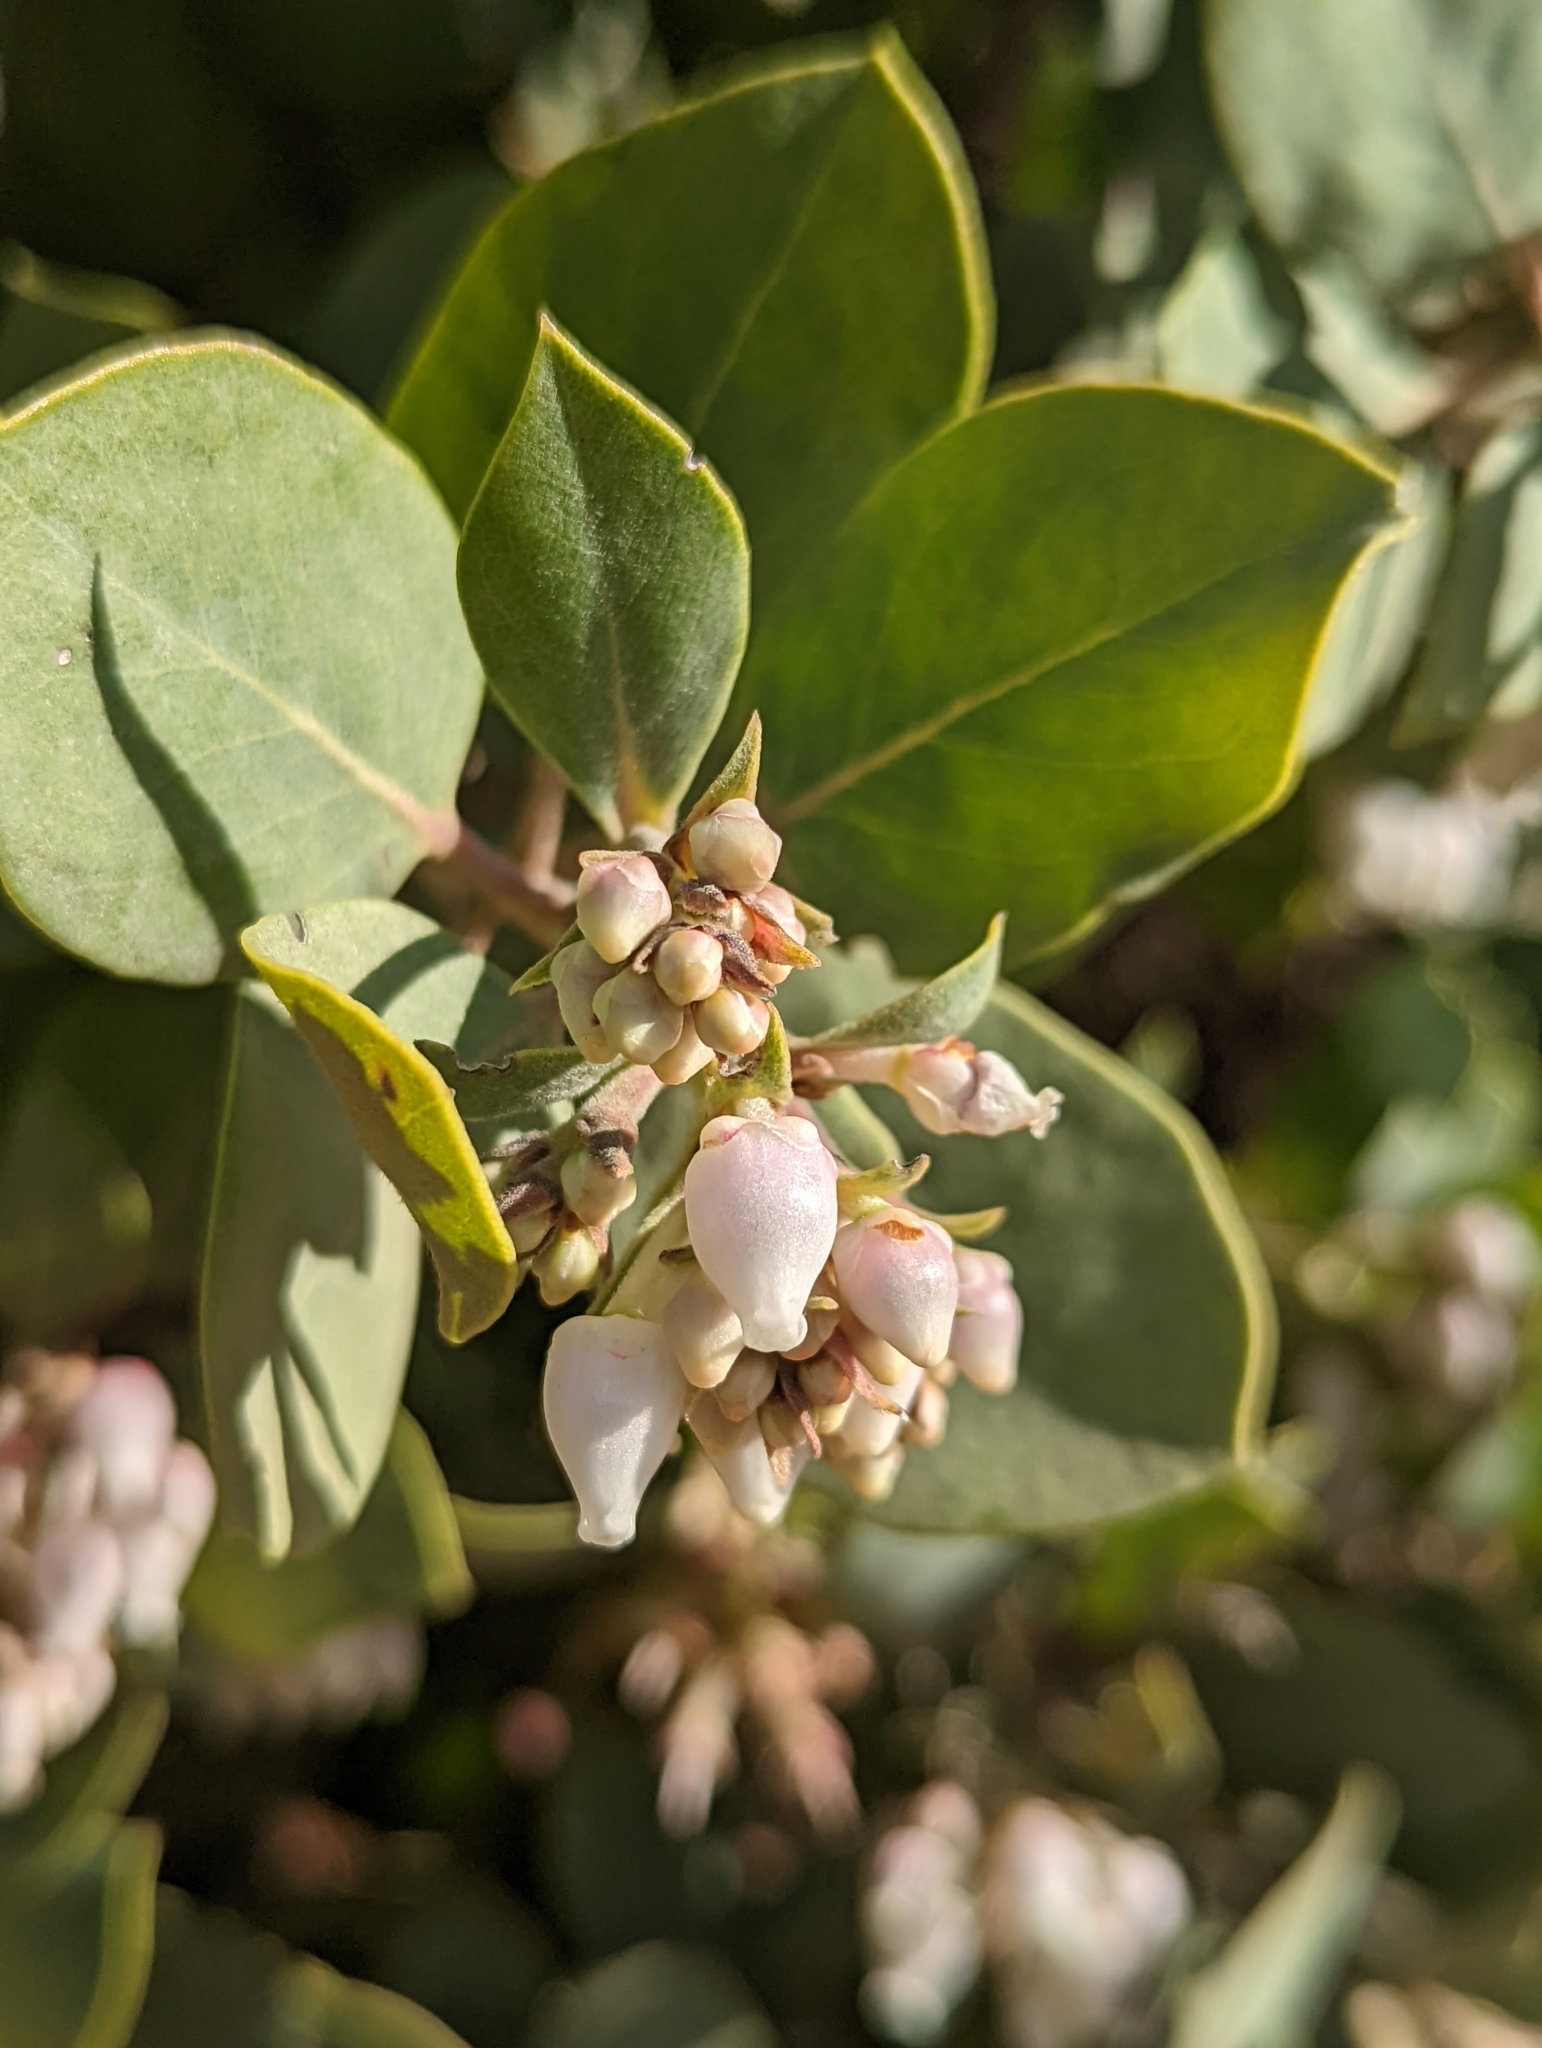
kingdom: Plantae
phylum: Tracheophyta
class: Magnoliopsida
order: Ericales
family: Ericaceae
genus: Arctostaphylos
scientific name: Arctostaphylos glandulosa
